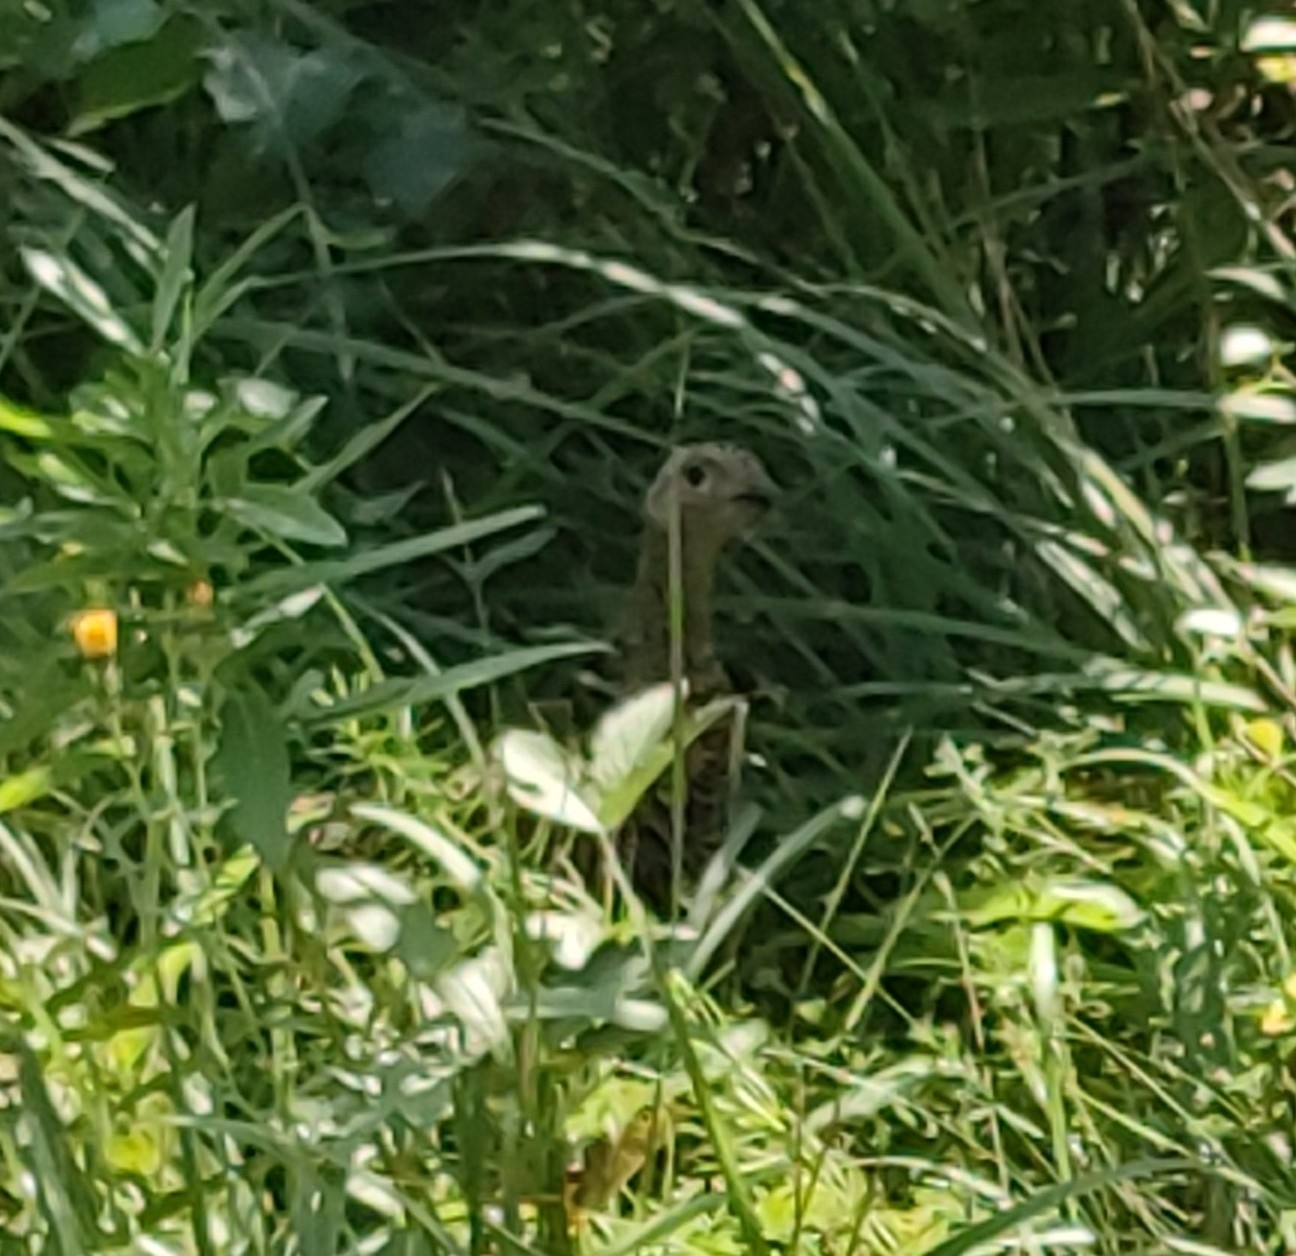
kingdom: Animalia
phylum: Chordata
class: Aves
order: Galliformes
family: Phasianidae
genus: Lyrurus
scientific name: Lyrurus tetrix
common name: Black grouse
